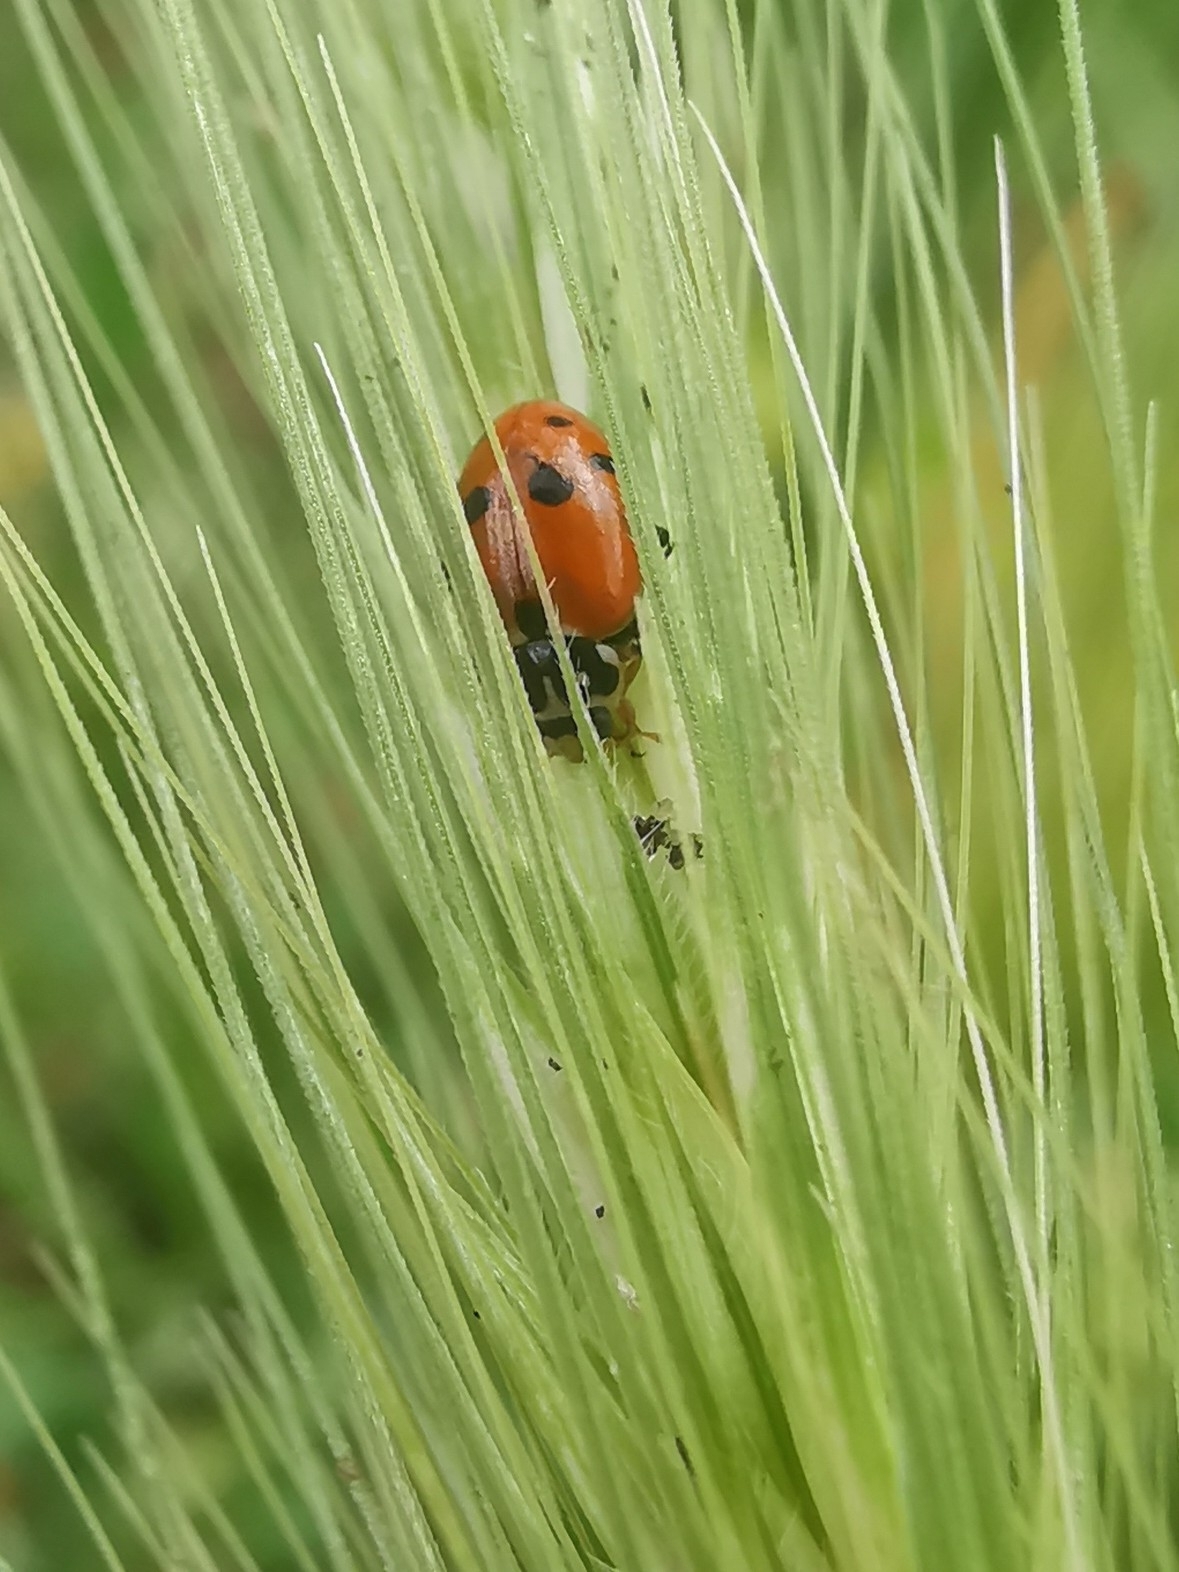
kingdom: Animalia
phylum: Arthropoda
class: Insecta
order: Coleoptera
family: Coccinellidae
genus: Hippodamia
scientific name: Hippodamia variegata
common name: Ladybird beetle
